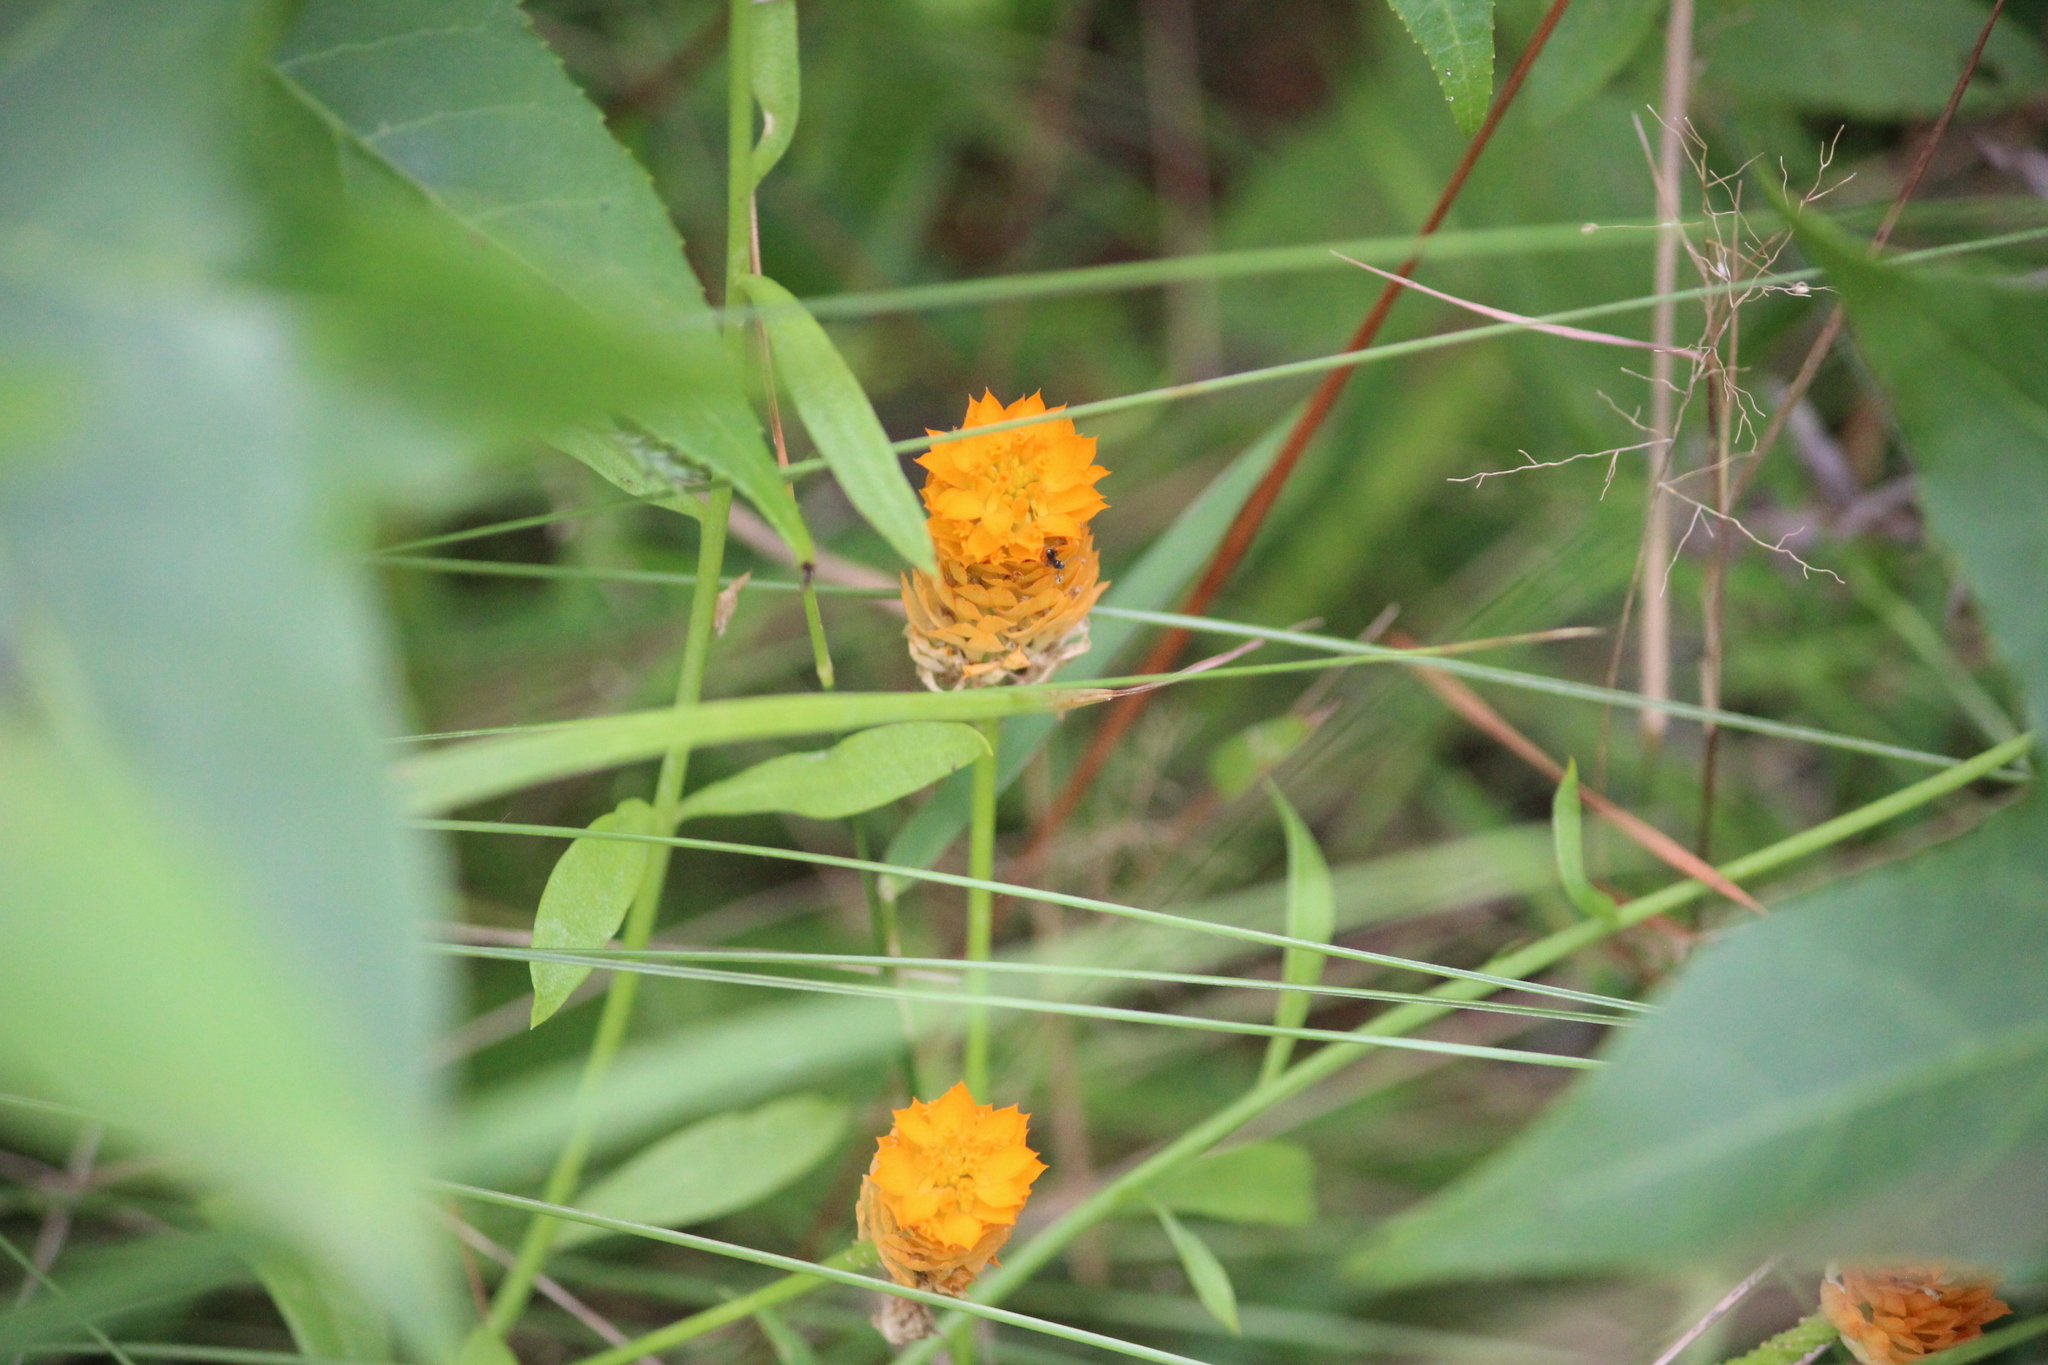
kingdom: Plantae
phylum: Tracheophyta
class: Magnoliopsida
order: Fabales
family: Polygalaceae
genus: Polygala
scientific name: Polygala lutea
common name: Orange milkwort
